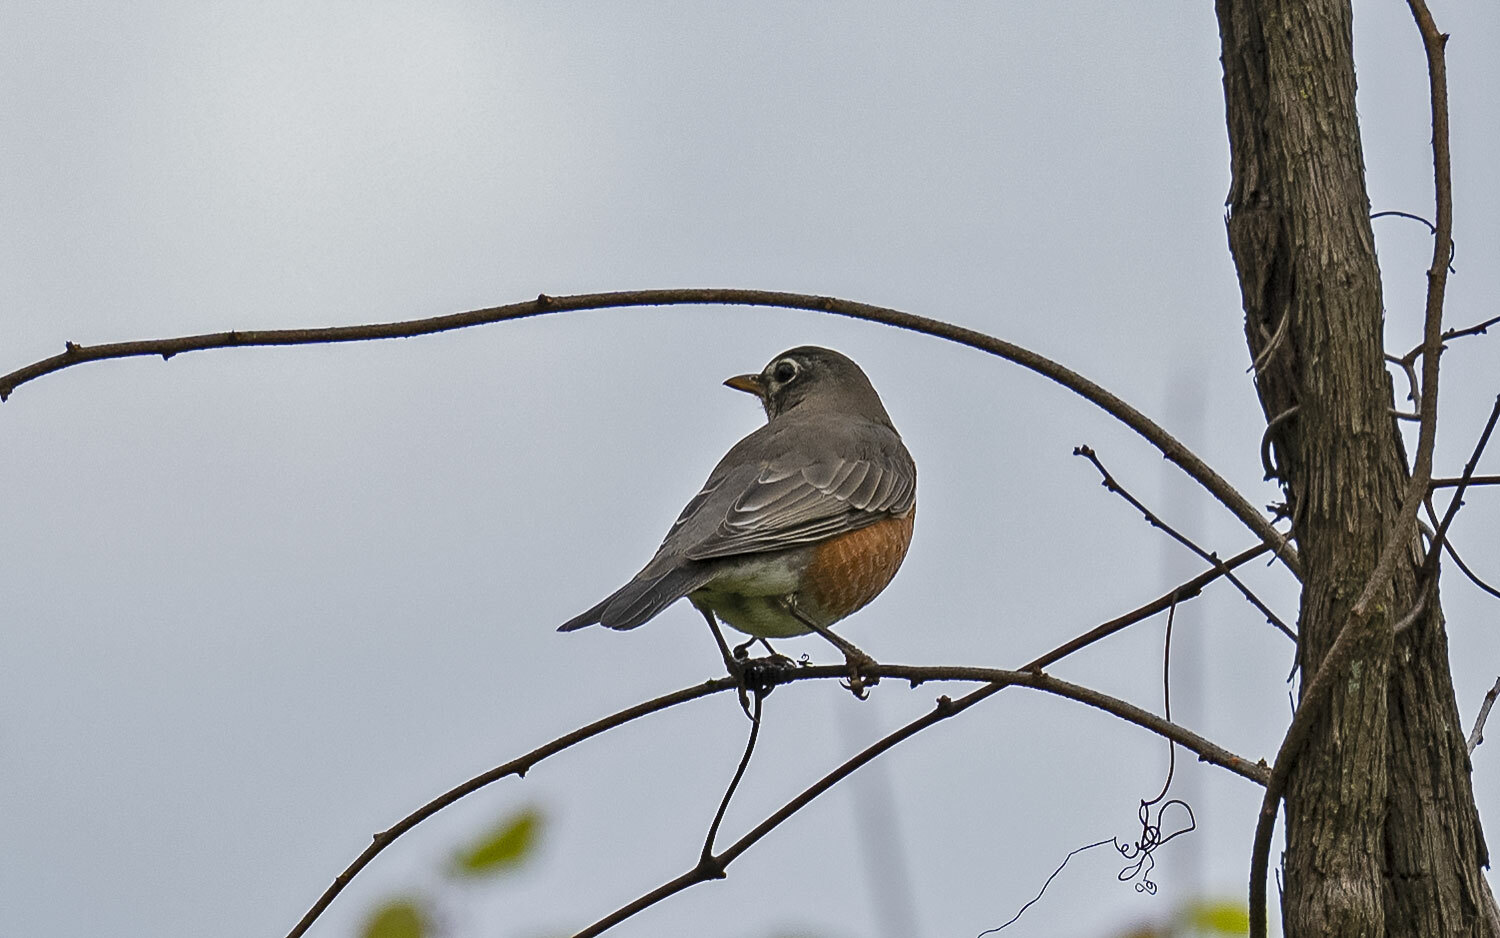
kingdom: Animalia
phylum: Chordata
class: Aves
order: Passeriformes
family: Turdidae
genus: Turdus
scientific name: Turdus migratorius
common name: American robin
